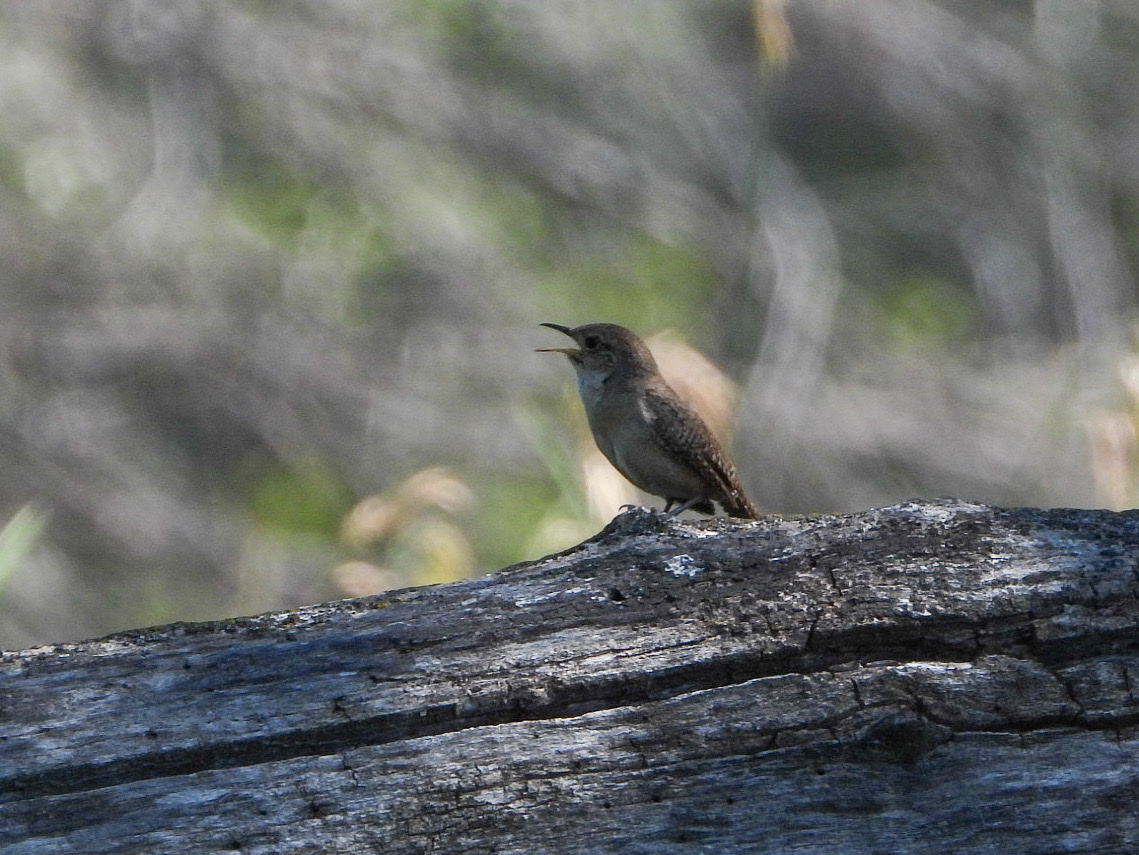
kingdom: Animalia
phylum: Chordata
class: Aves
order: Passeriformes
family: Troglodytidae
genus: Troglodytes
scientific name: Troglodytes aedon
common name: House wren
